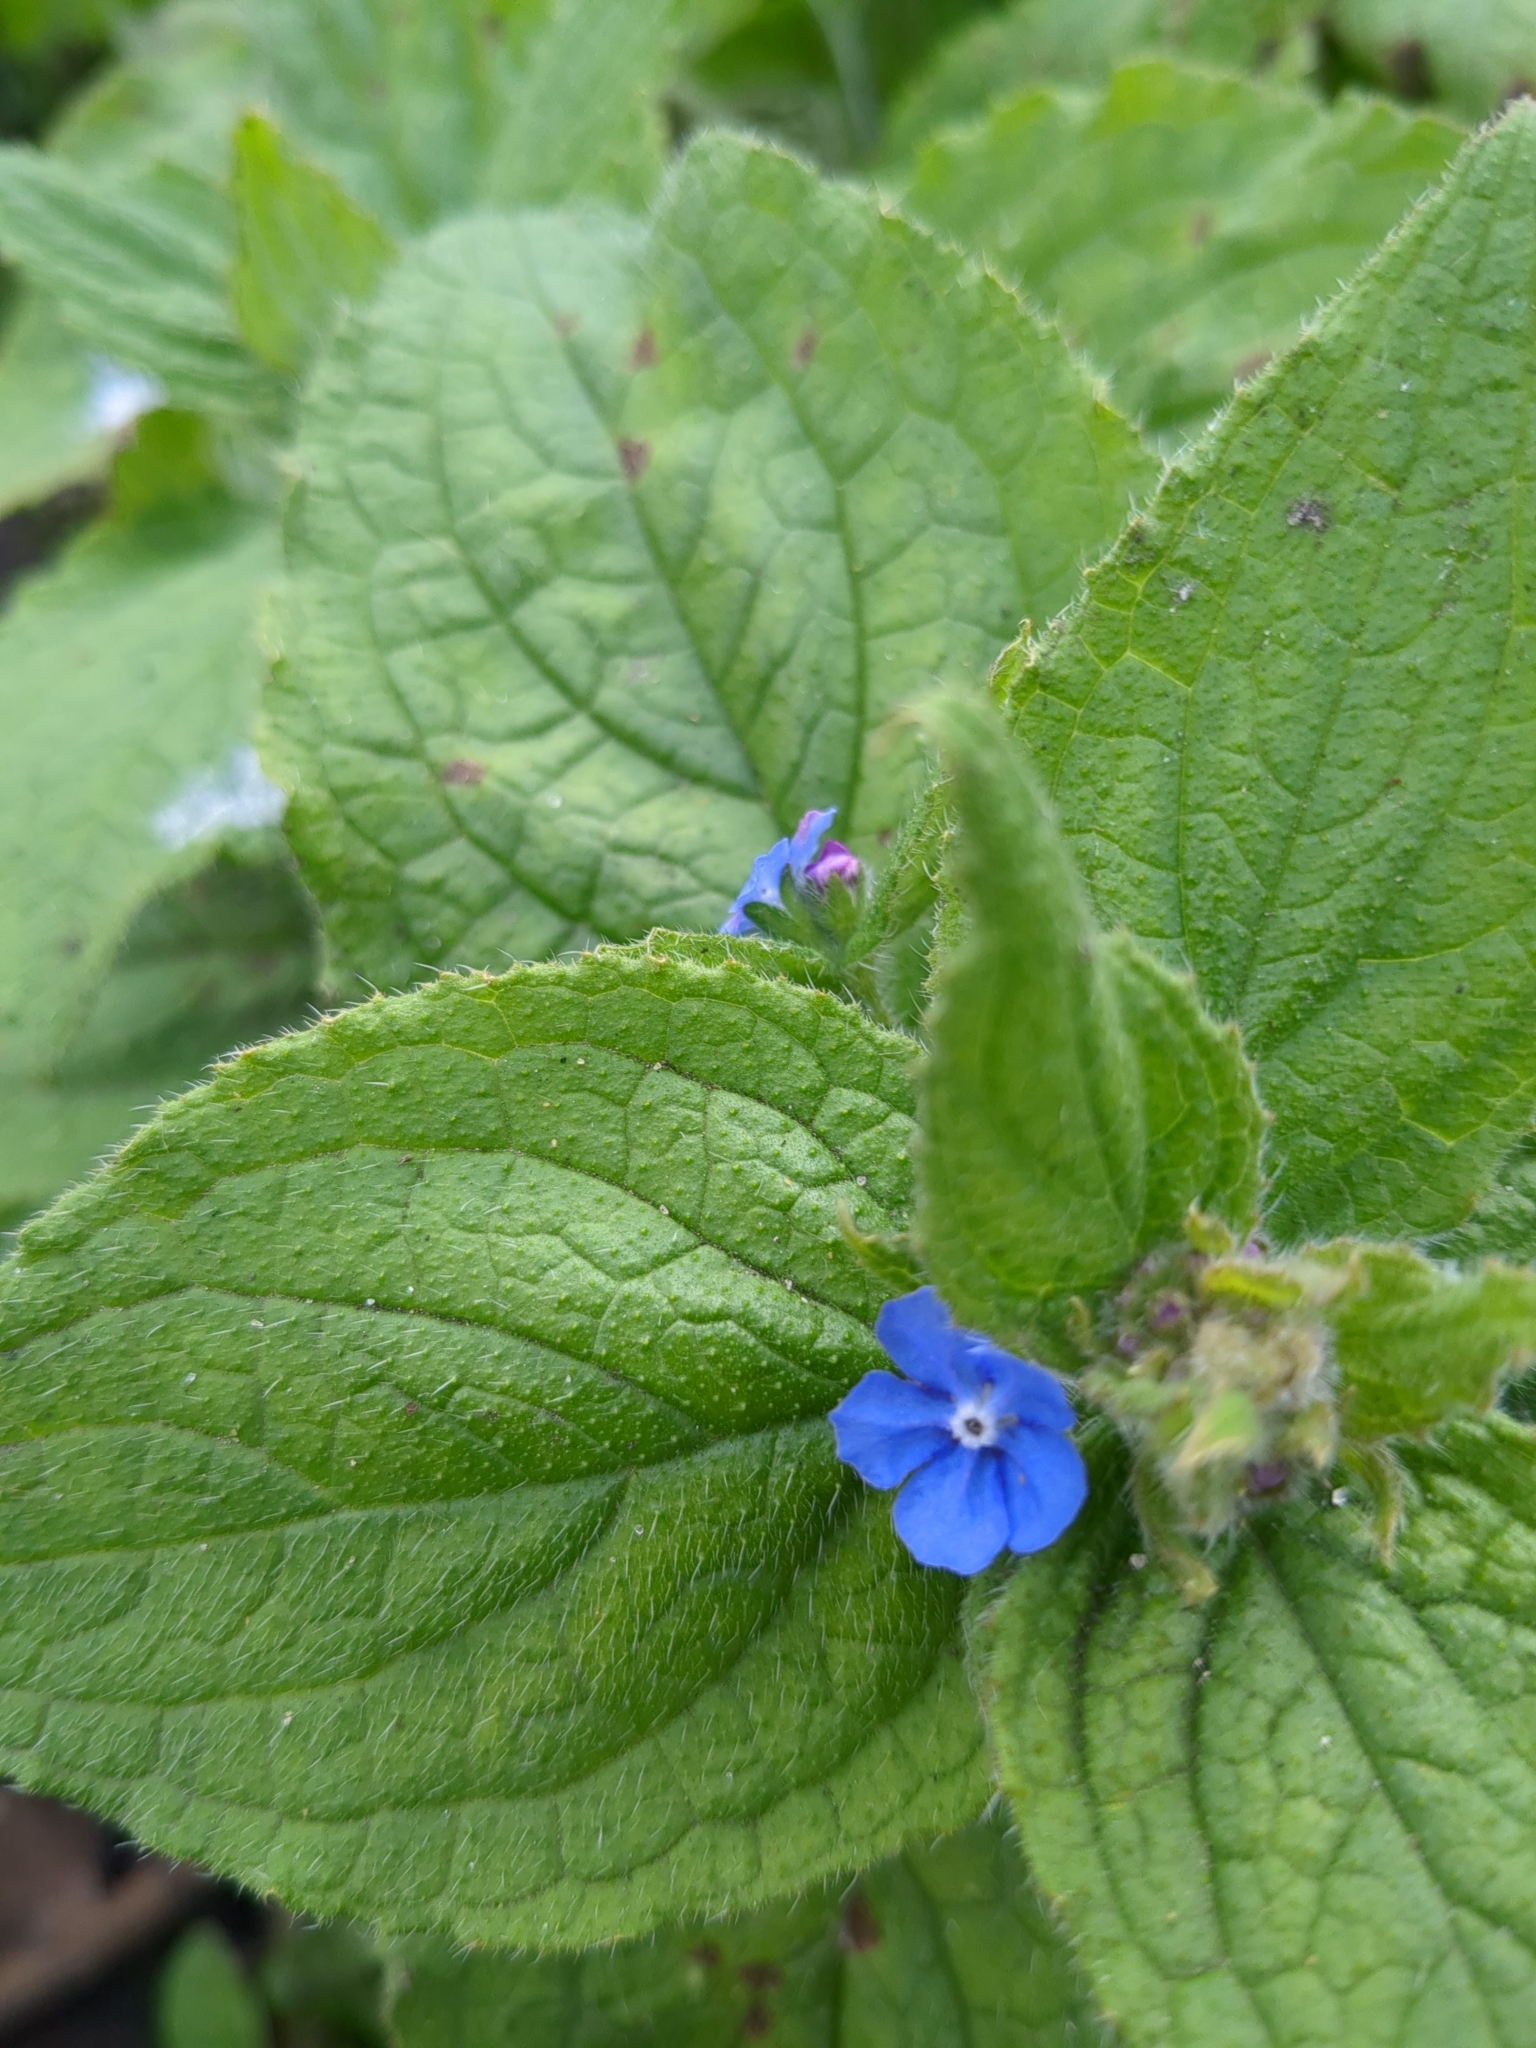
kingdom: Plantae
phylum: Tracheophyta
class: Magnoliopsida
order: Boraginales
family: Boraginaceae
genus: Pentaglottis
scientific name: Pentaglottis sempervirens
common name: Green alkanet
